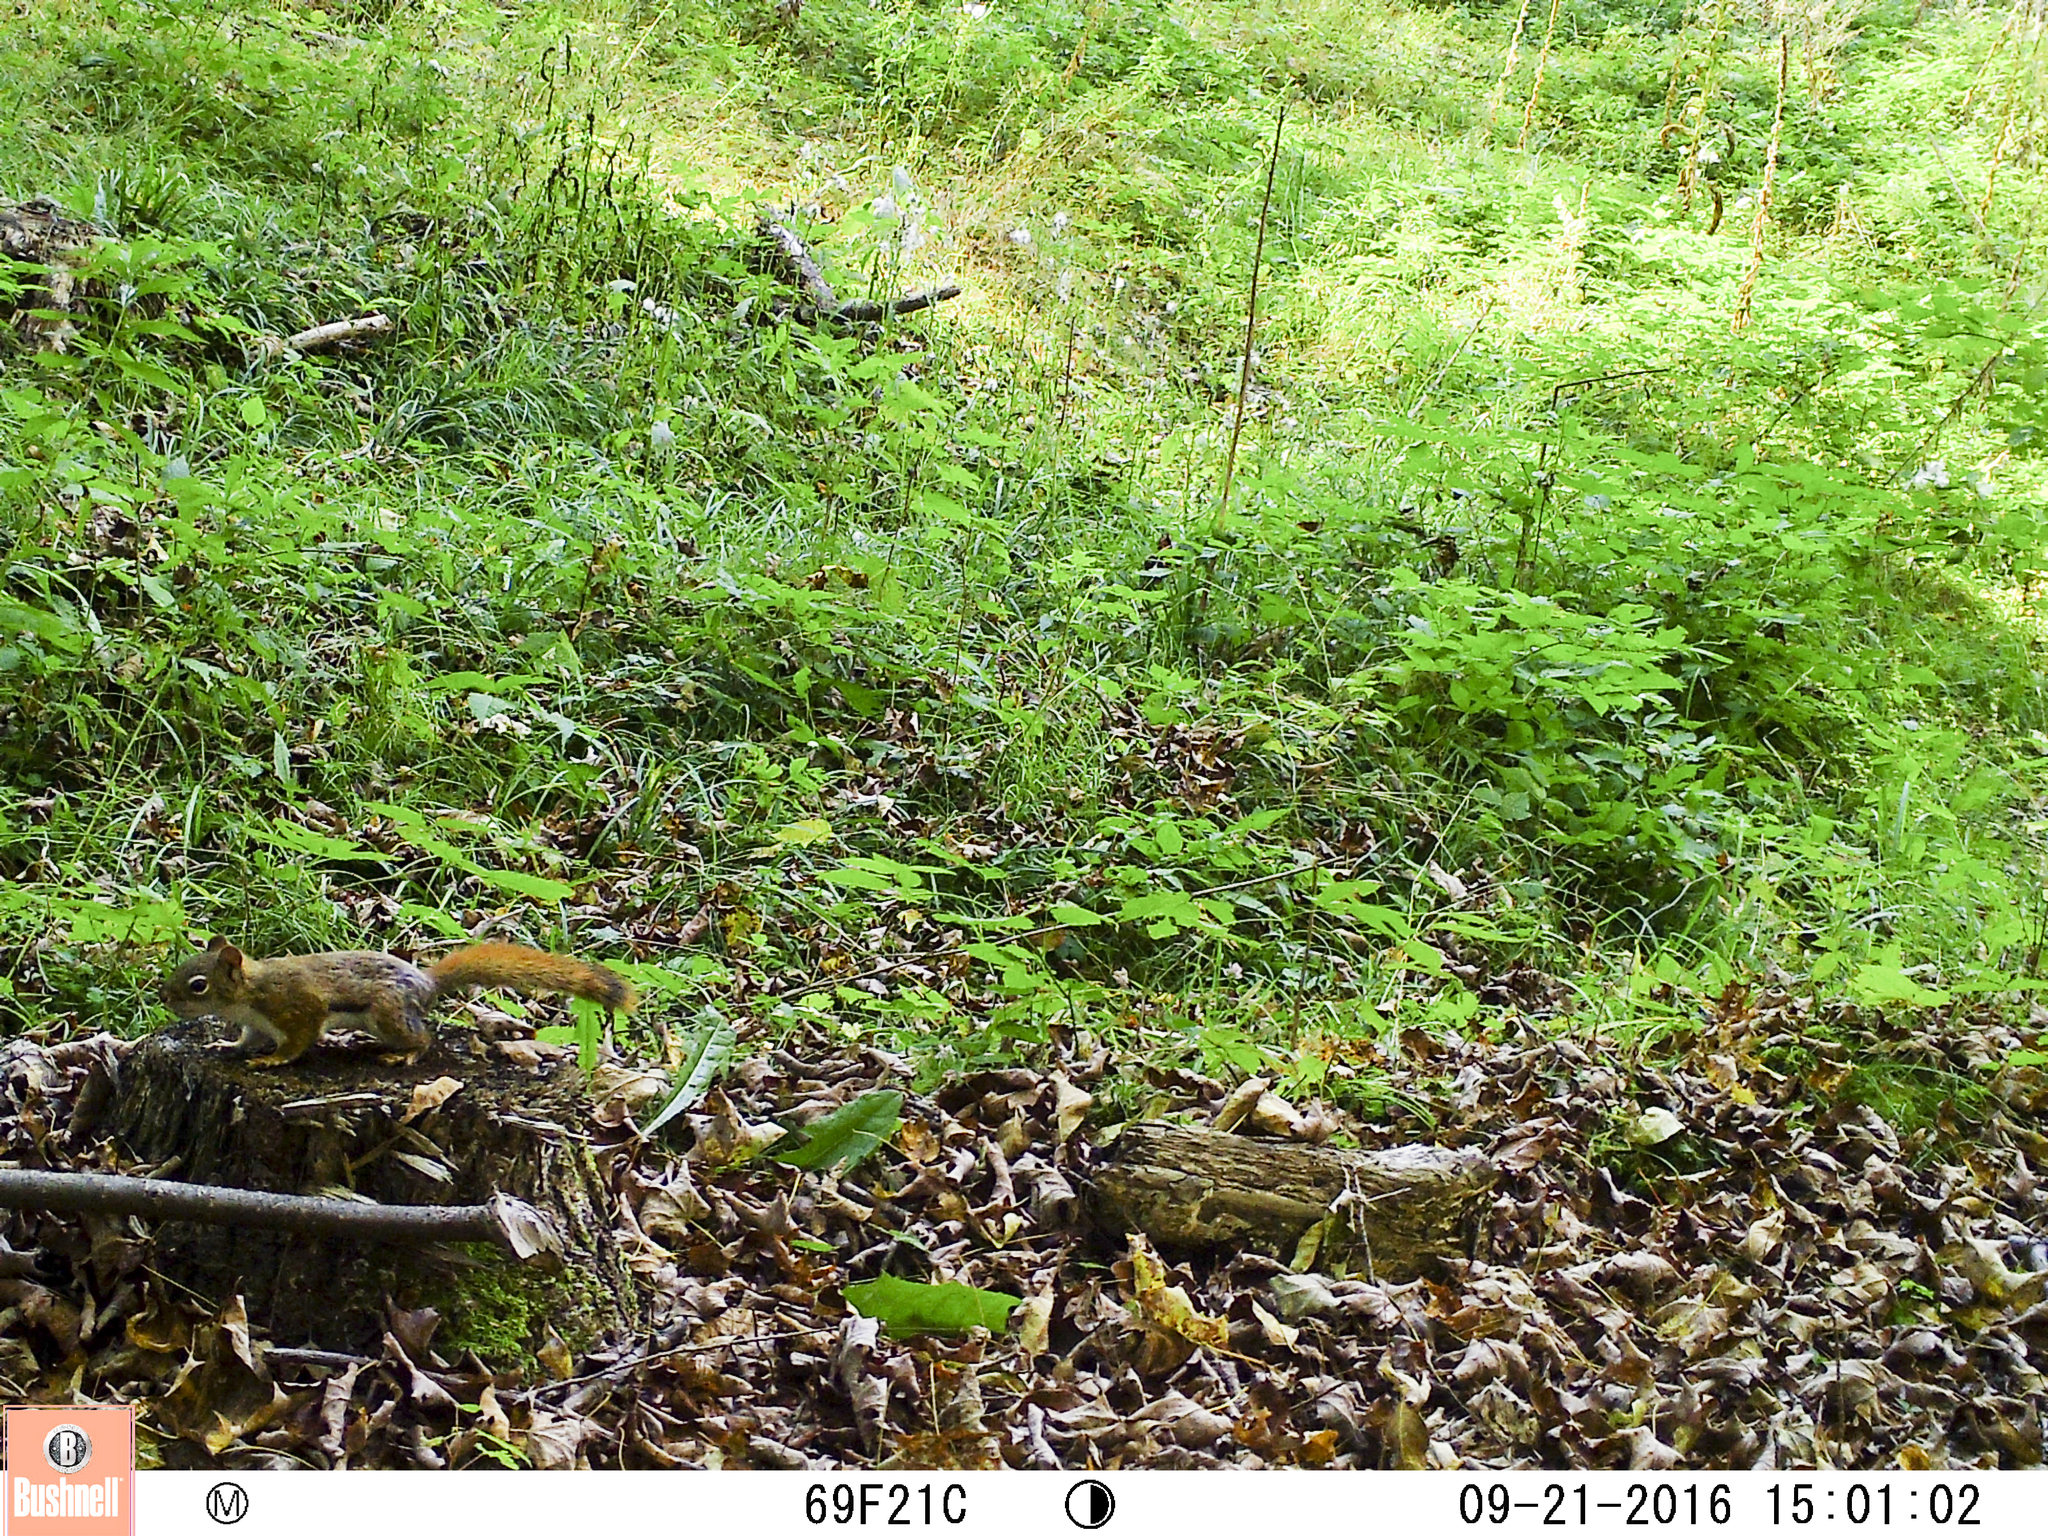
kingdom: Animalia
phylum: Chordata
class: Mammalia
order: Rodentia
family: Sciuridae
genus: Tamiasciurus
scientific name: Tamiasciurus hudsonicus
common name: Red squirrel
